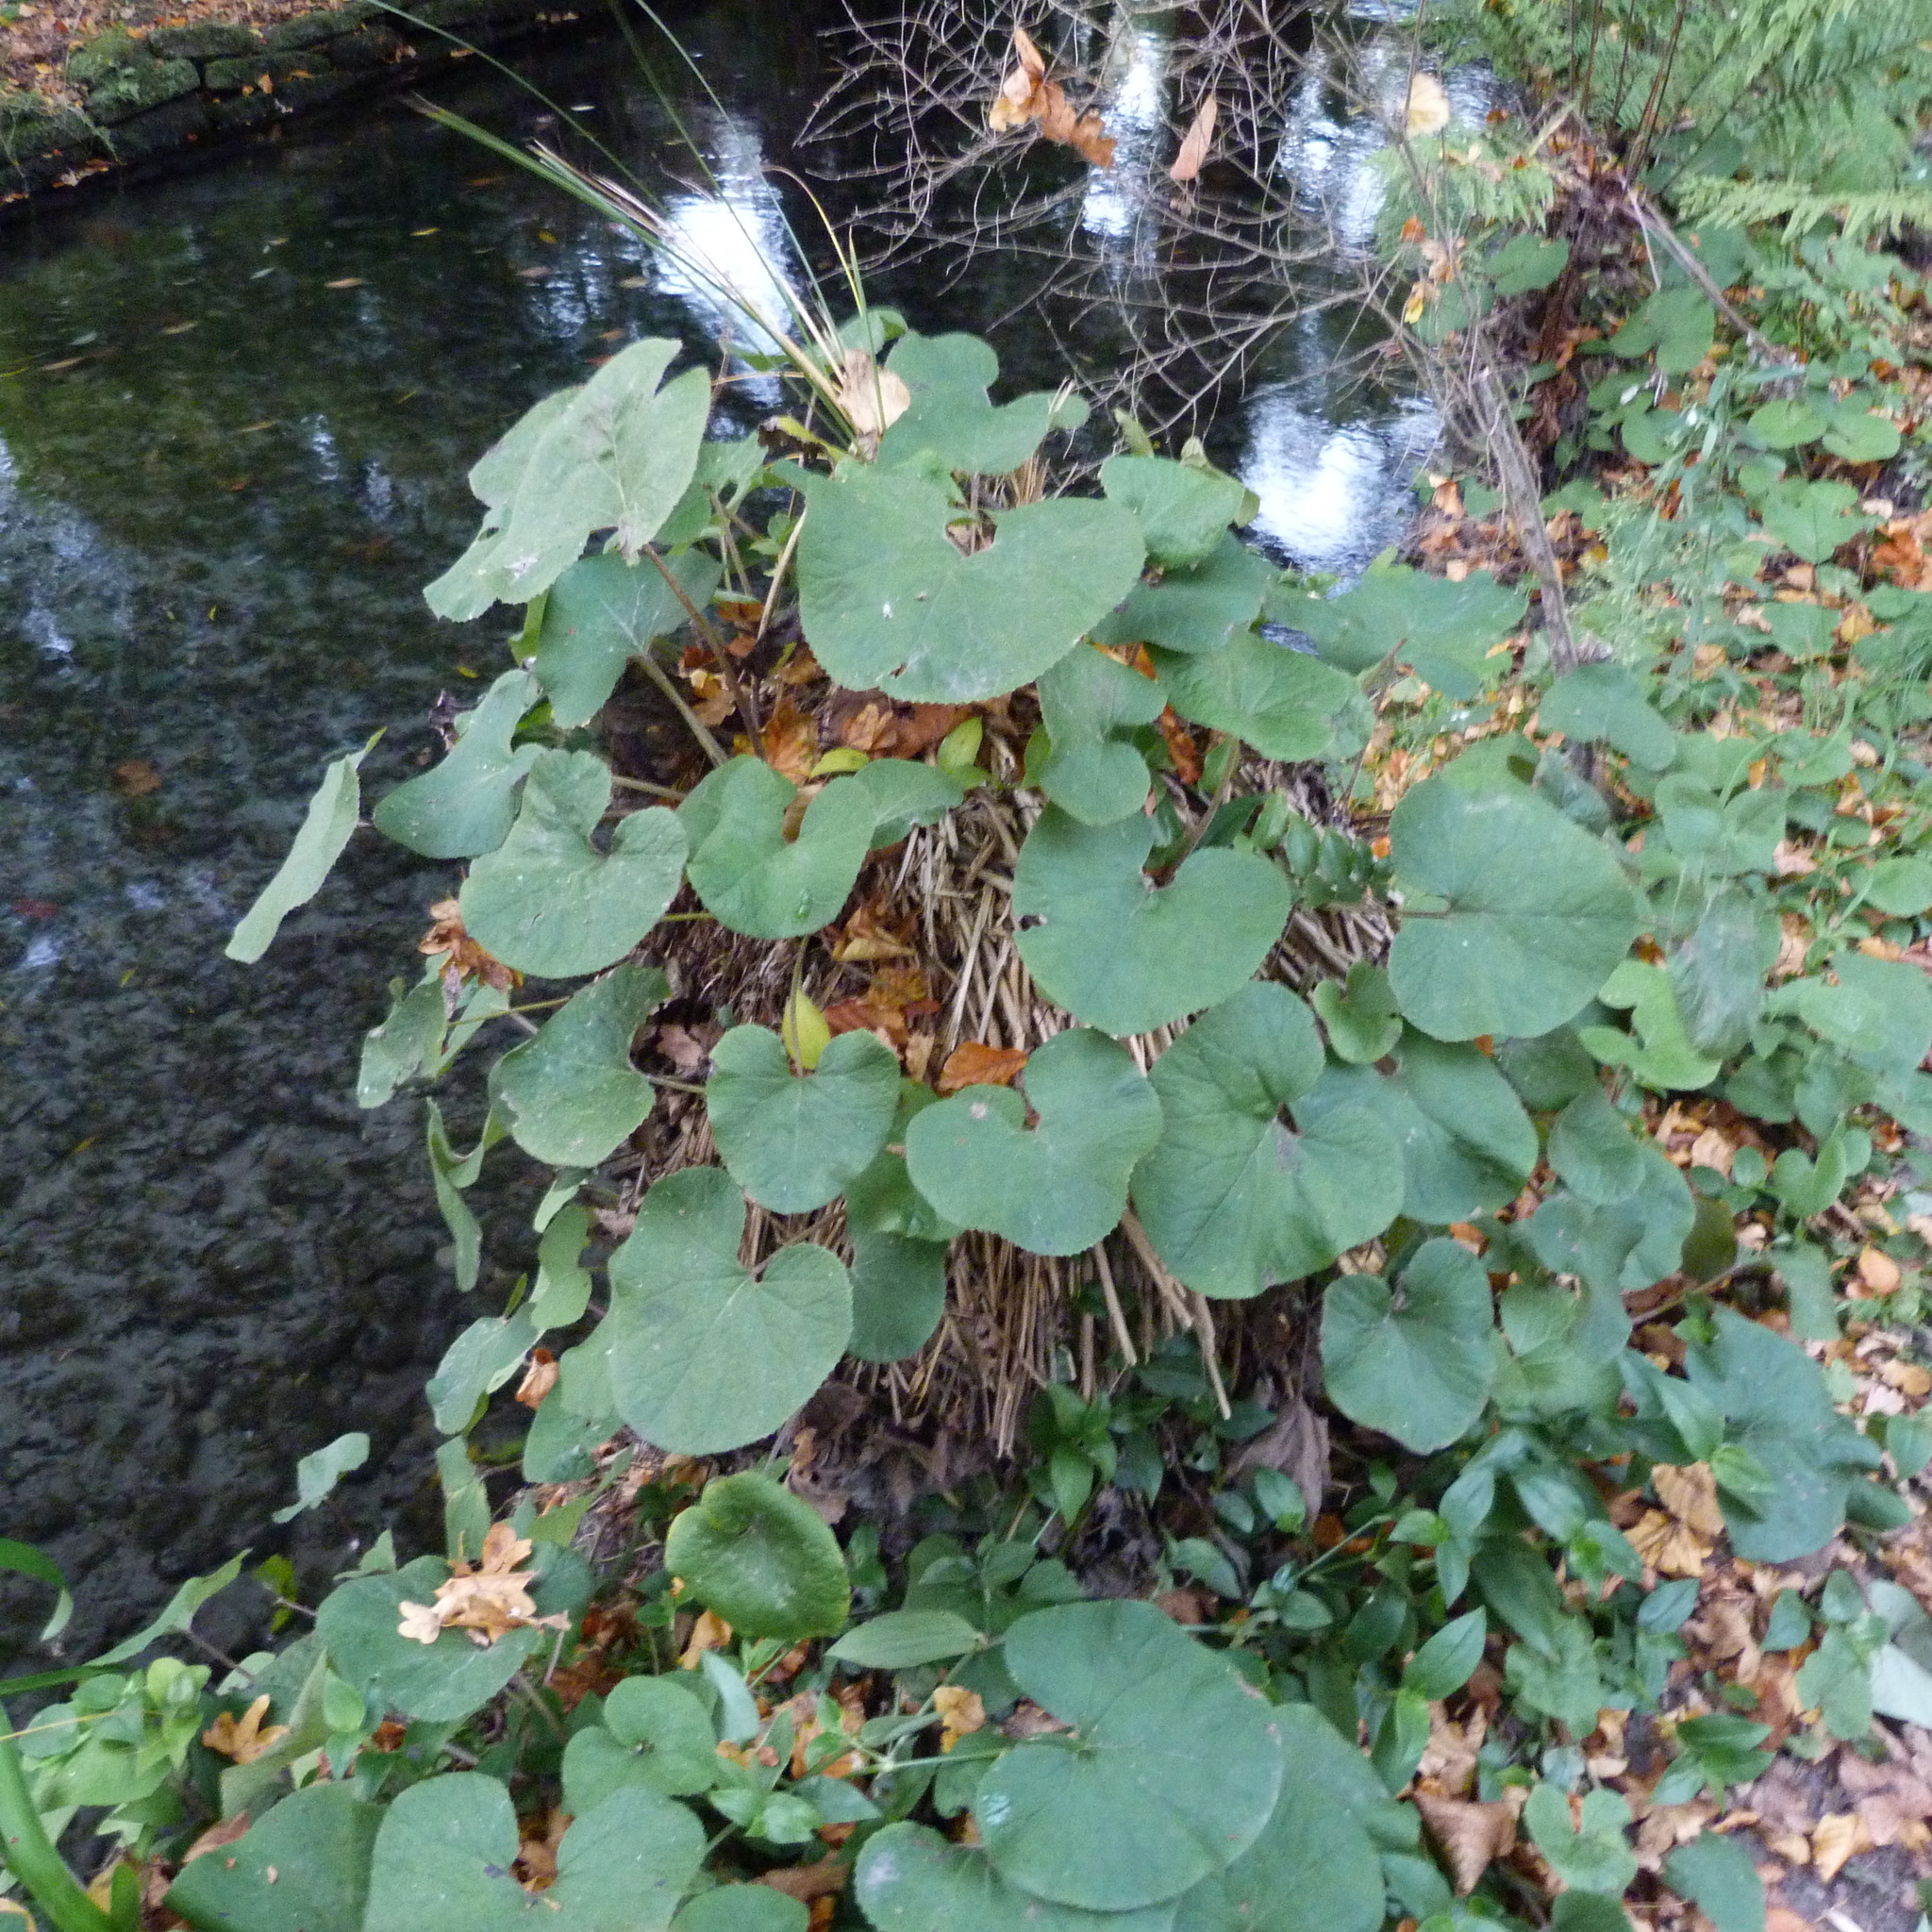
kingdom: Plantae
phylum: Tracheophyta
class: Magnoliopsida
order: Asterales
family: Asteraceae
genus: Petasites
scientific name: Petasites pyrenaicus
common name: Winter heliotrope
